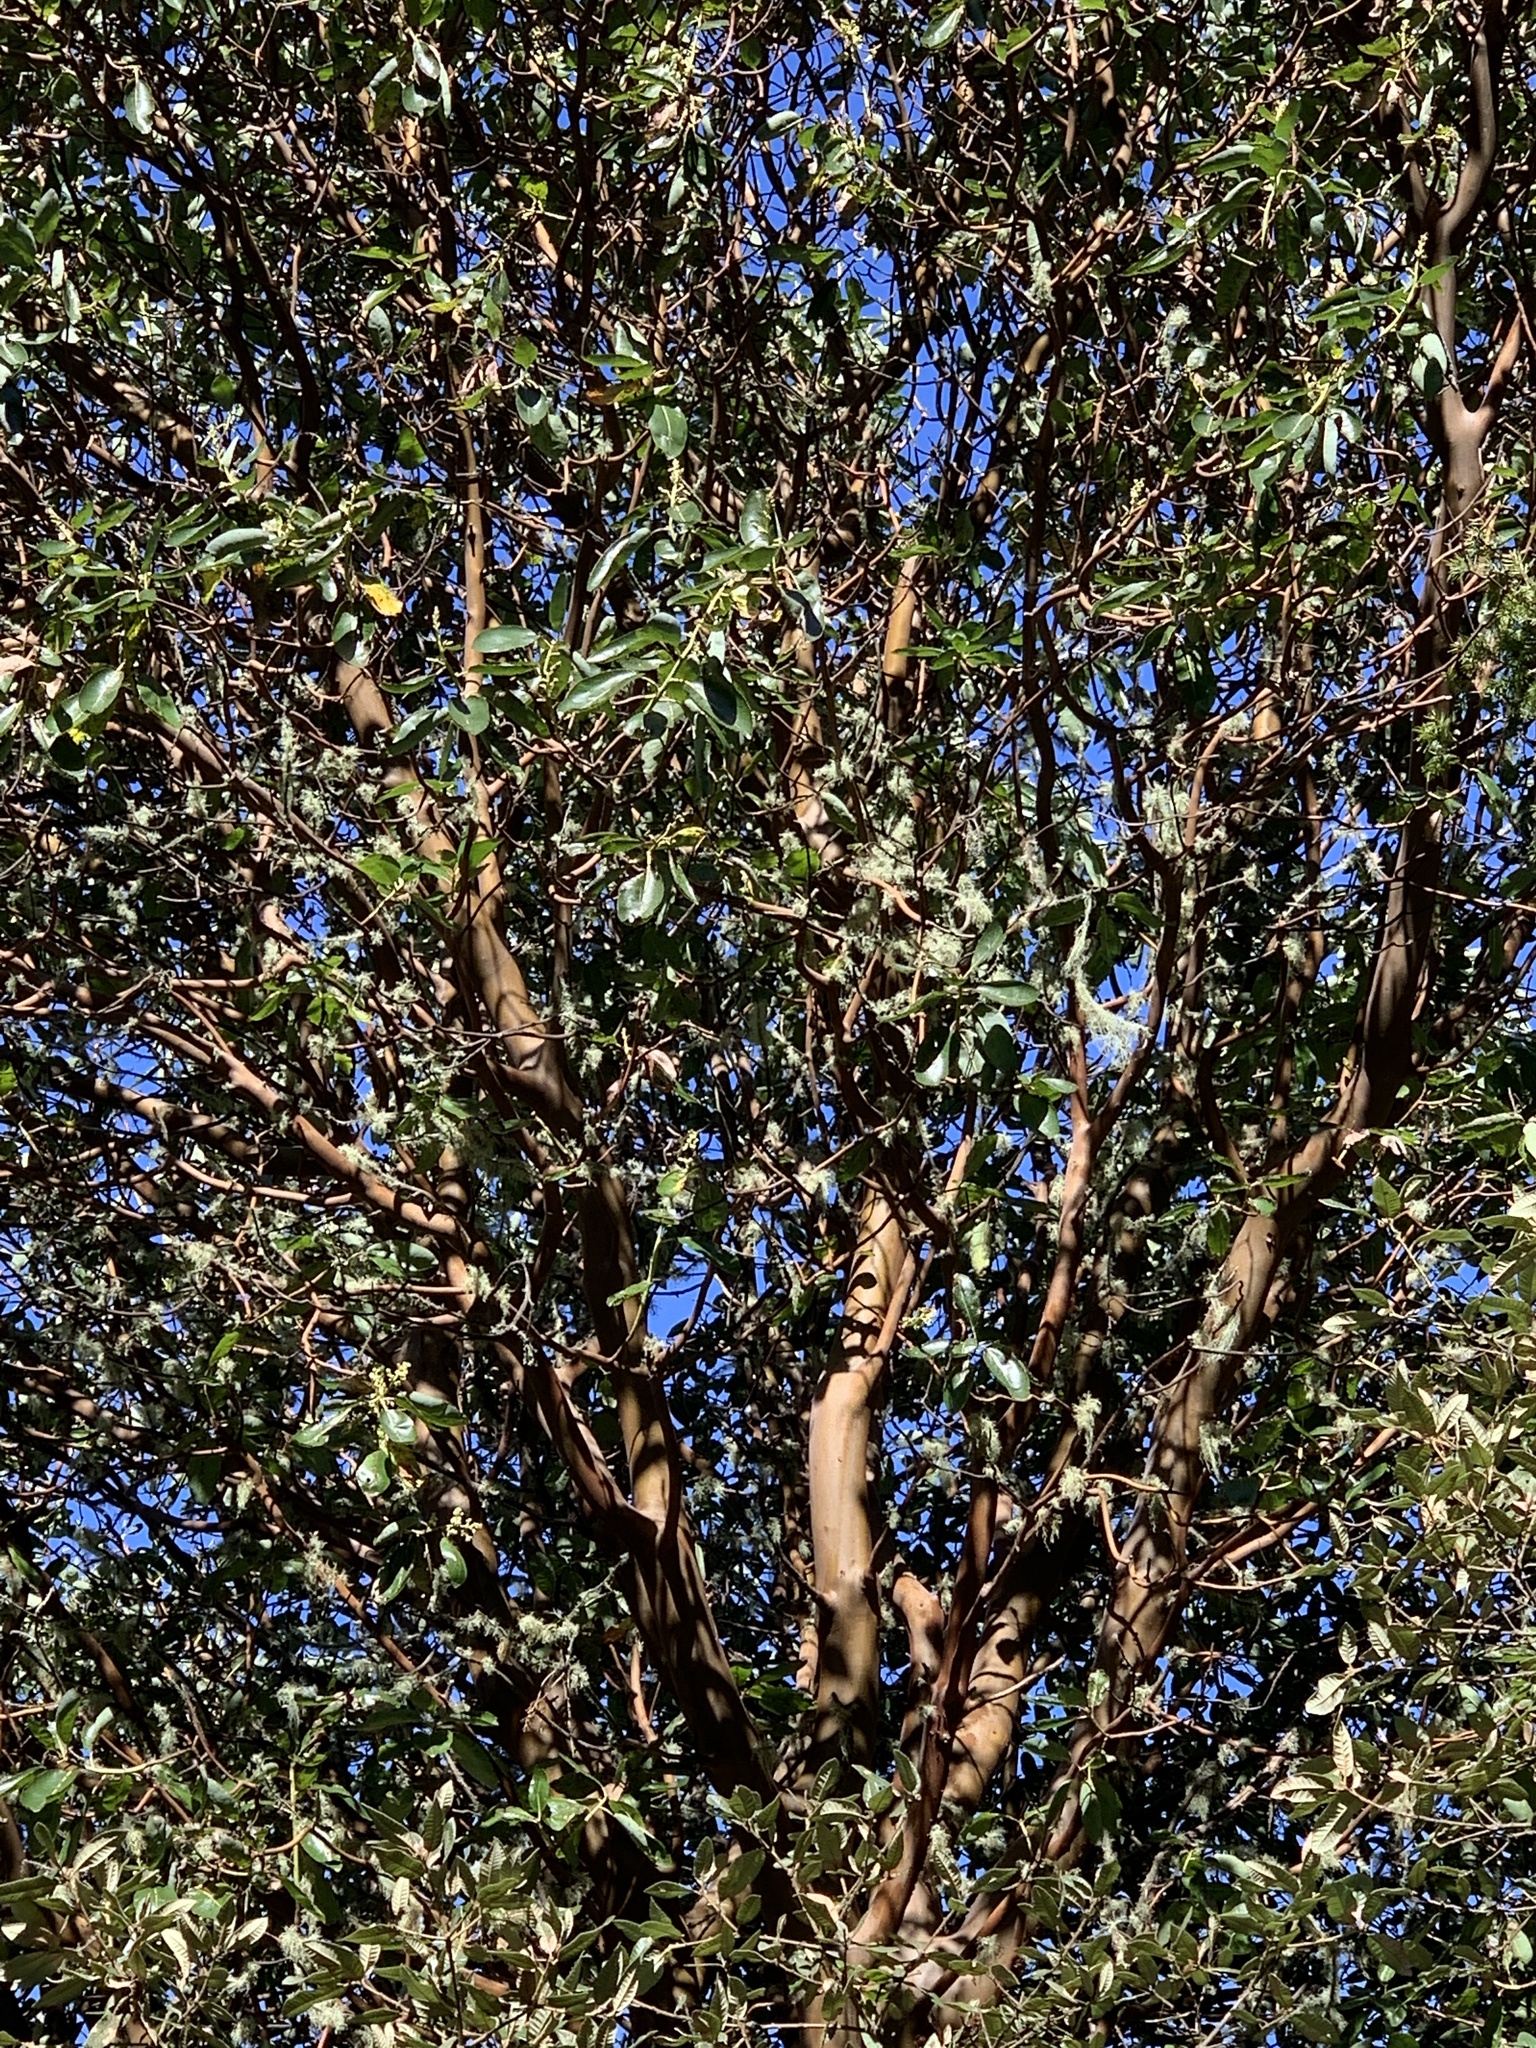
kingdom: Plantae
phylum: Tracheophyta
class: Magnoliopsida
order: Ericales
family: Ericaceae
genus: Arbutus
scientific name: Arbutus menziesii
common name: Pacific madrone
